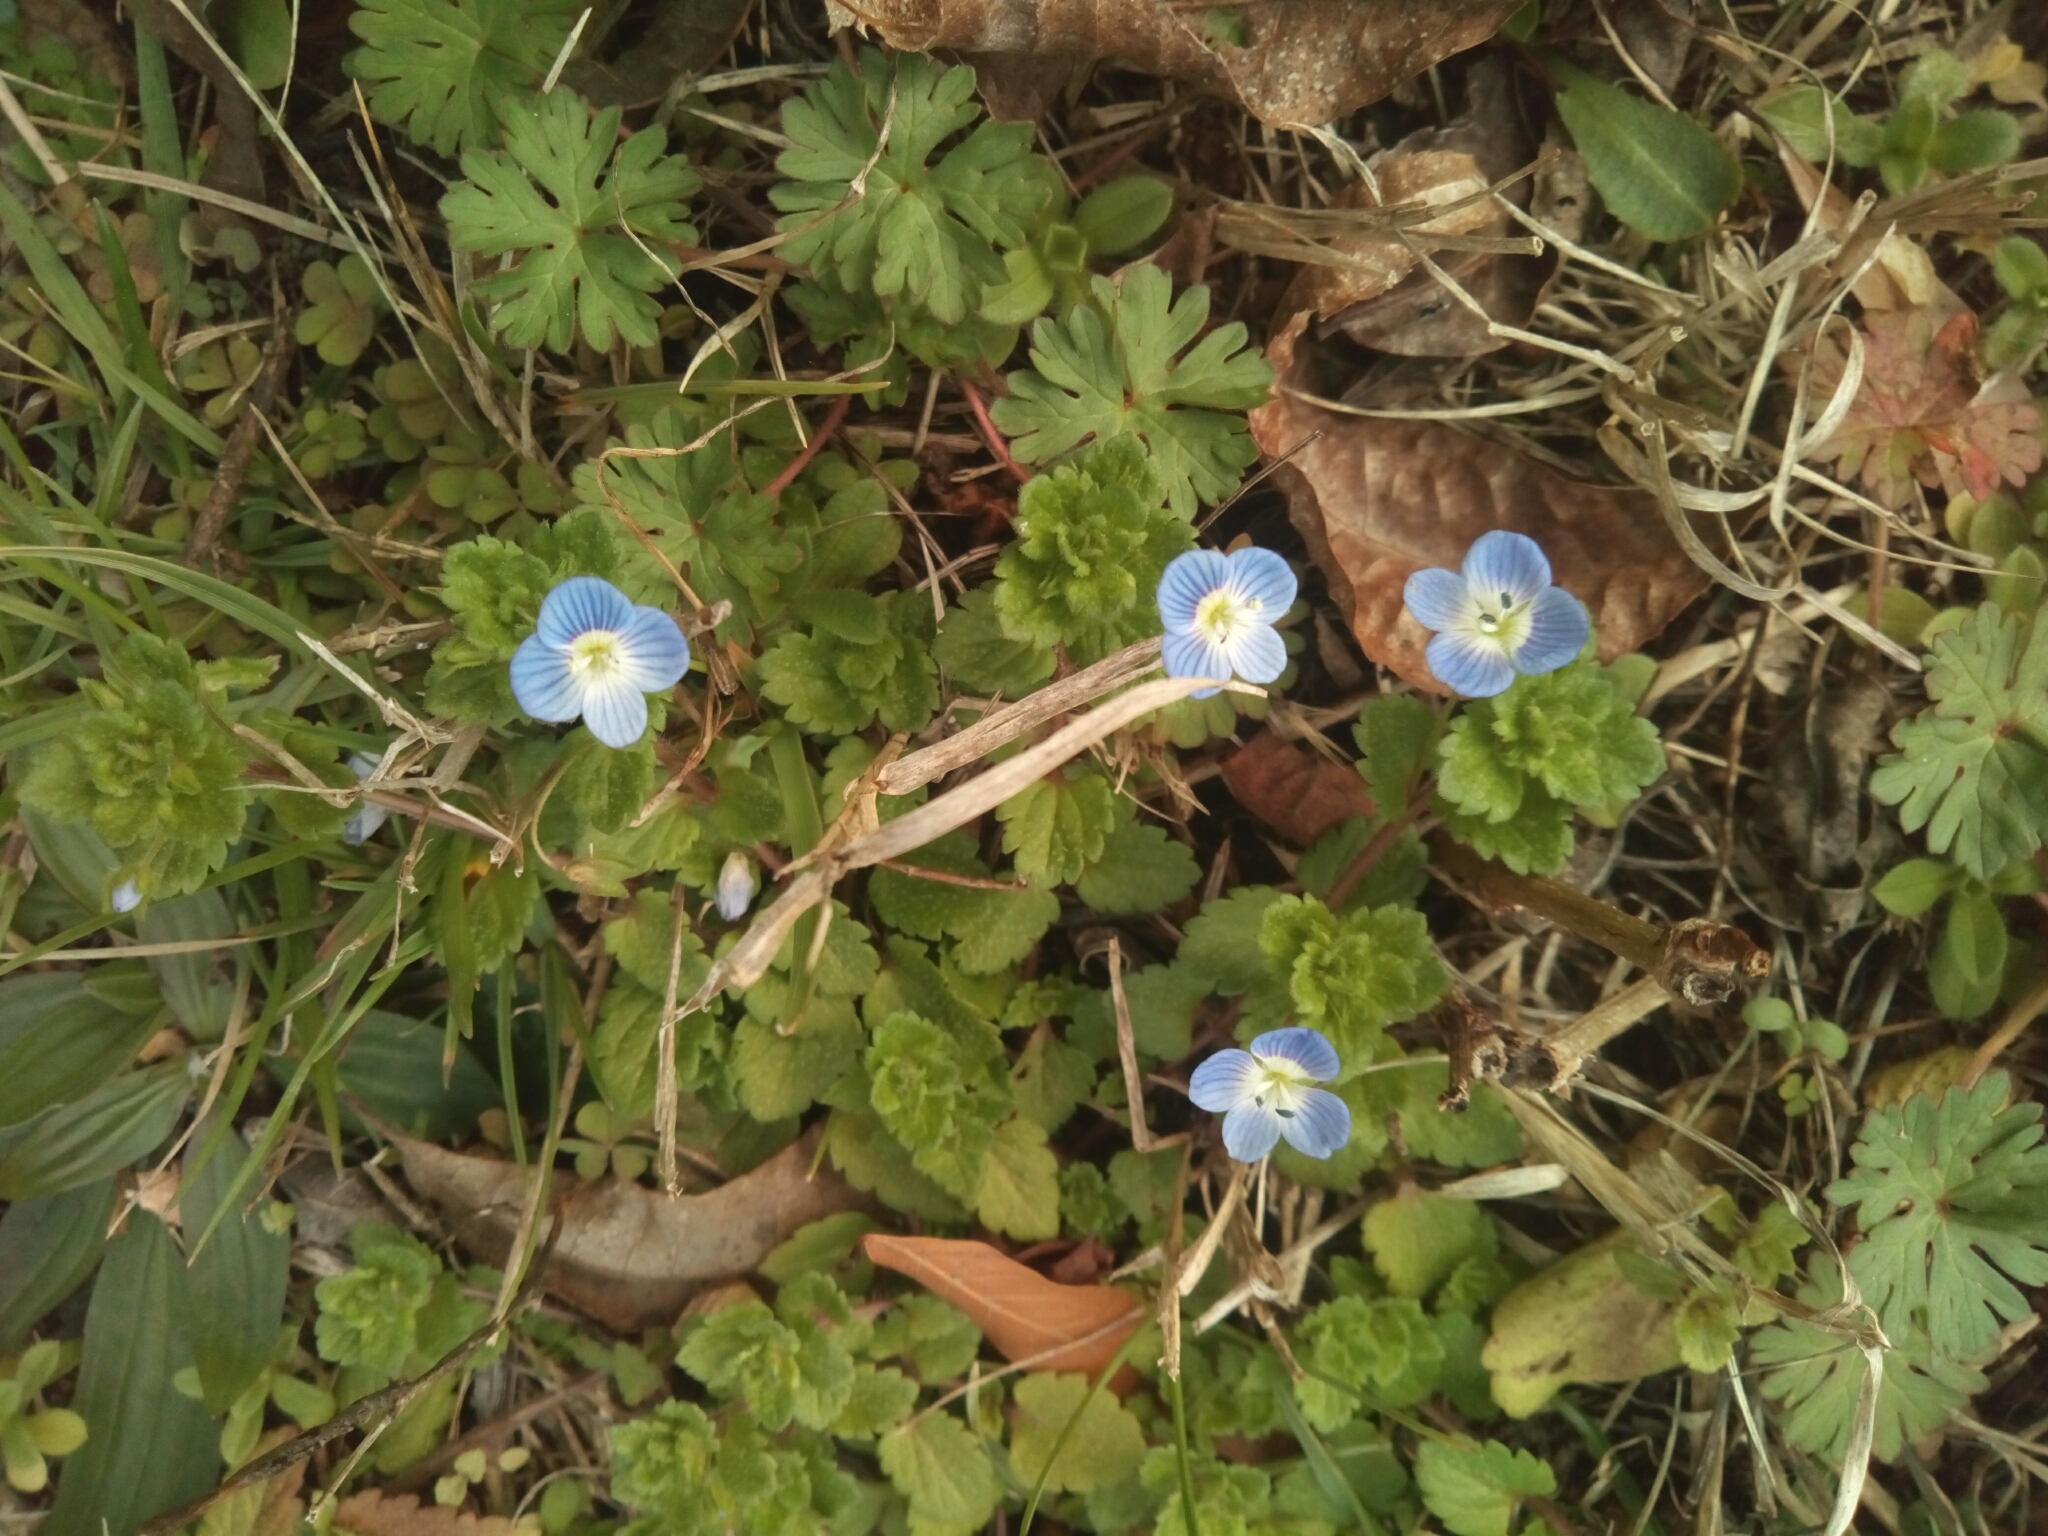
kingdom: Plantae
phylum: Tracheophyta
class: Magnoliopsida
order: Lamiales
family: Plantaginaceae
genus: Veronica
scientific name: Veronica persica
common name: Common field-speedwell
